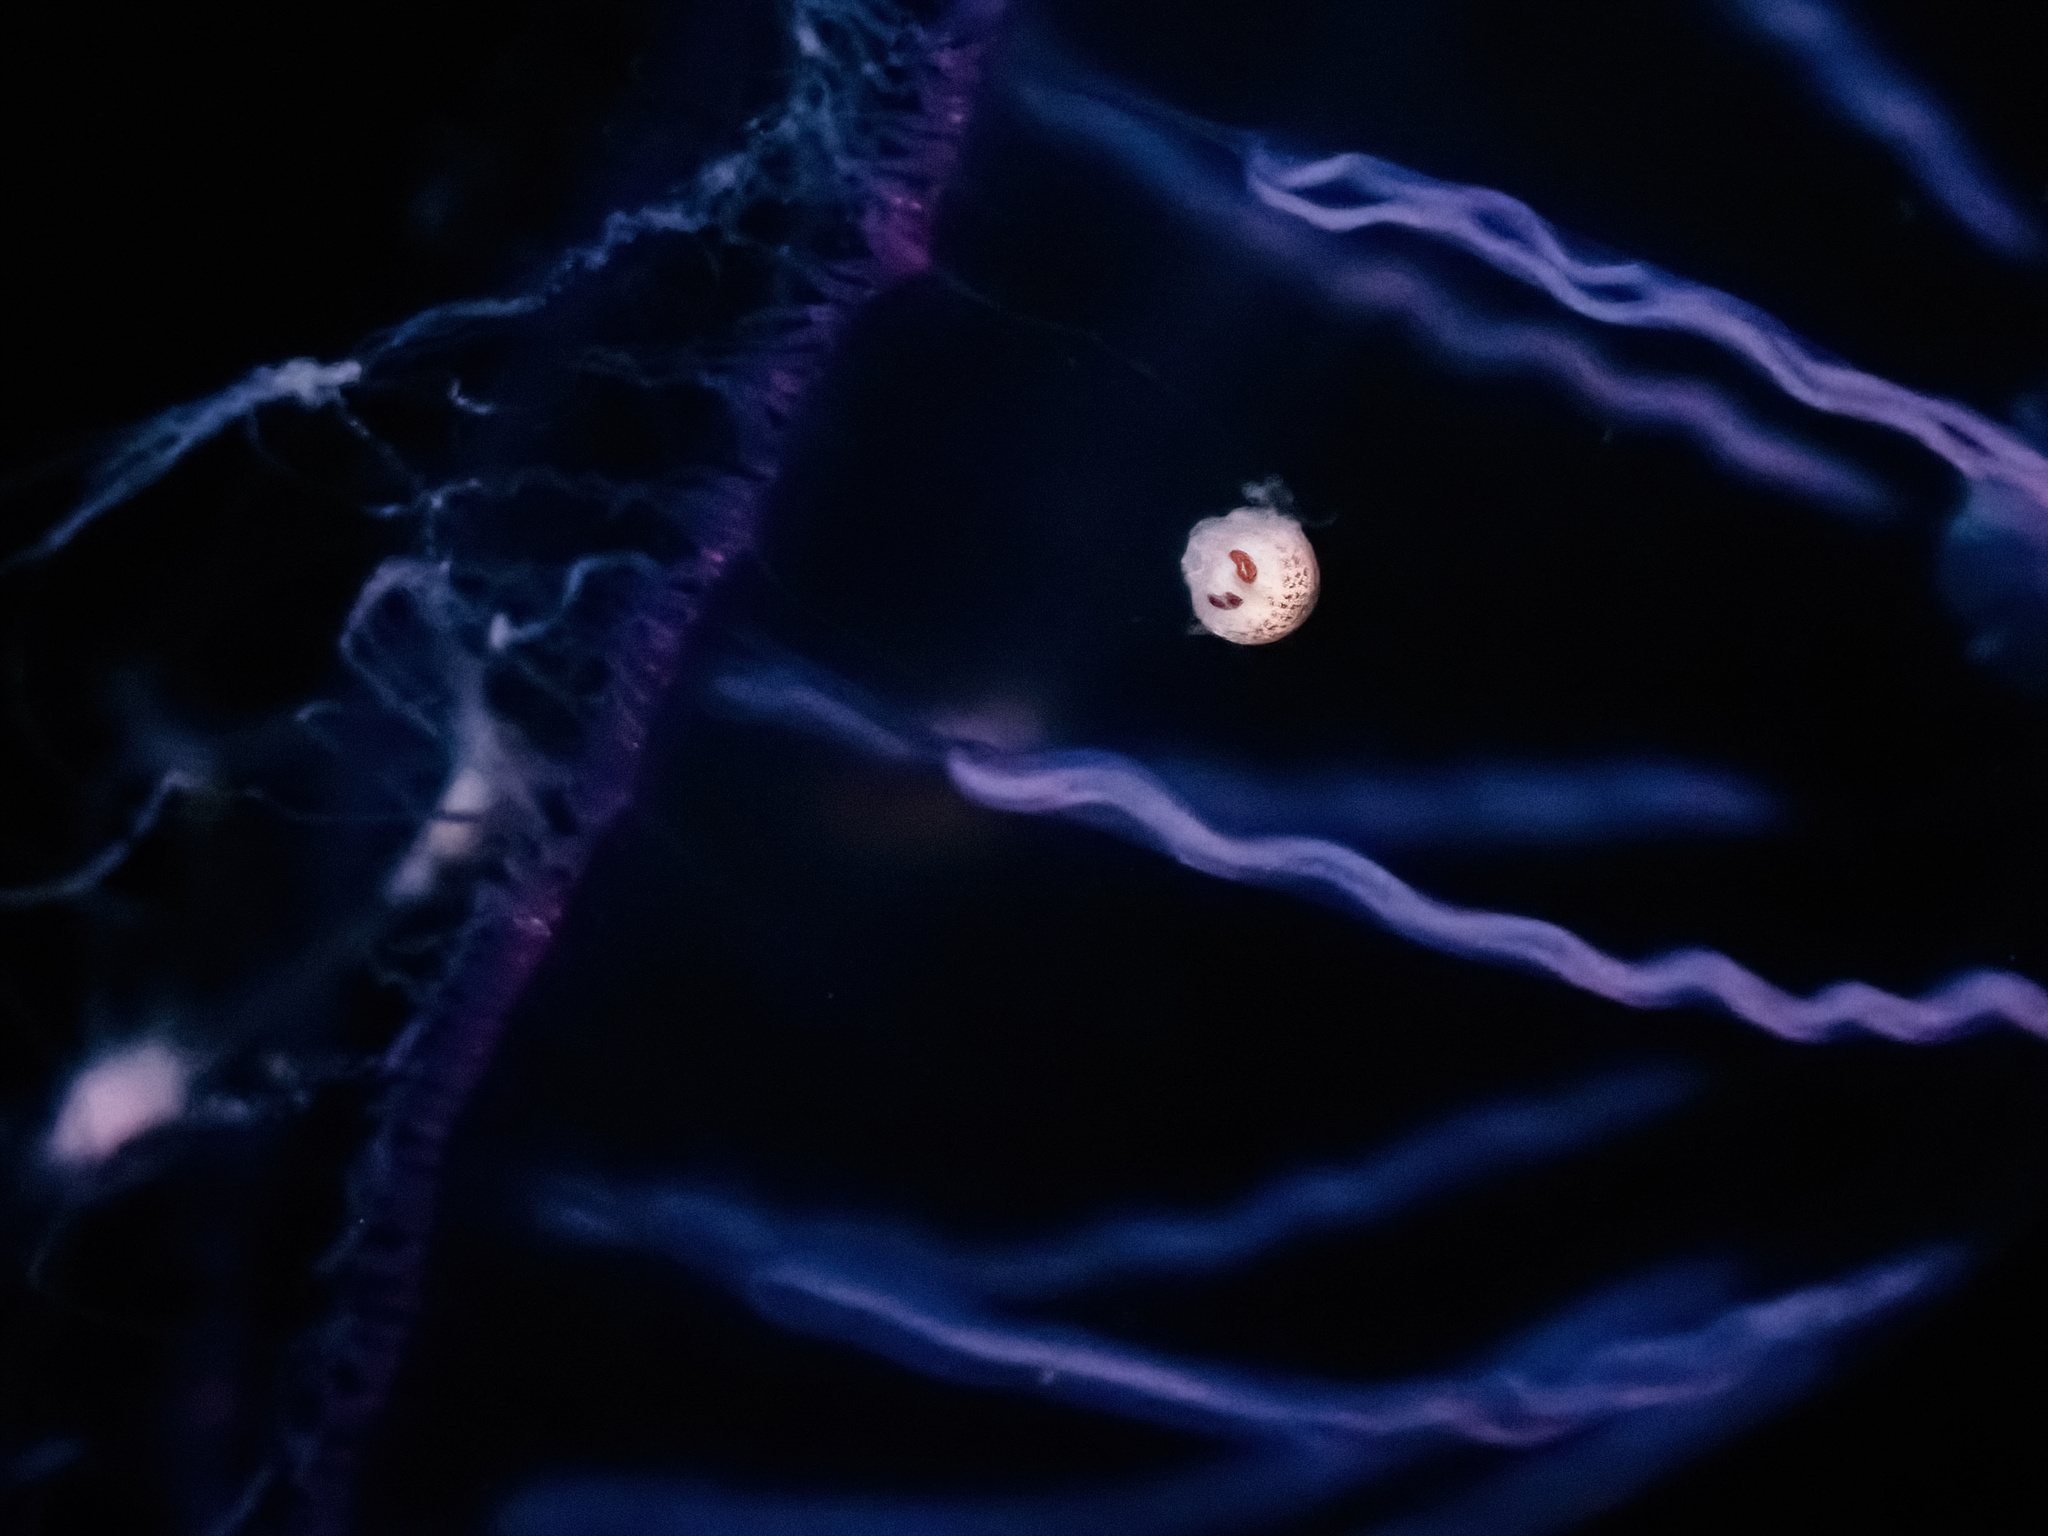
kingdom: Animalia
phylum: Arthropoda
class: Malacostraca
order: Amphipoda
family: Hyperiidae
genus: Hyperia
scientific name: Hyperia galba
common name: Big-eye amphipod
